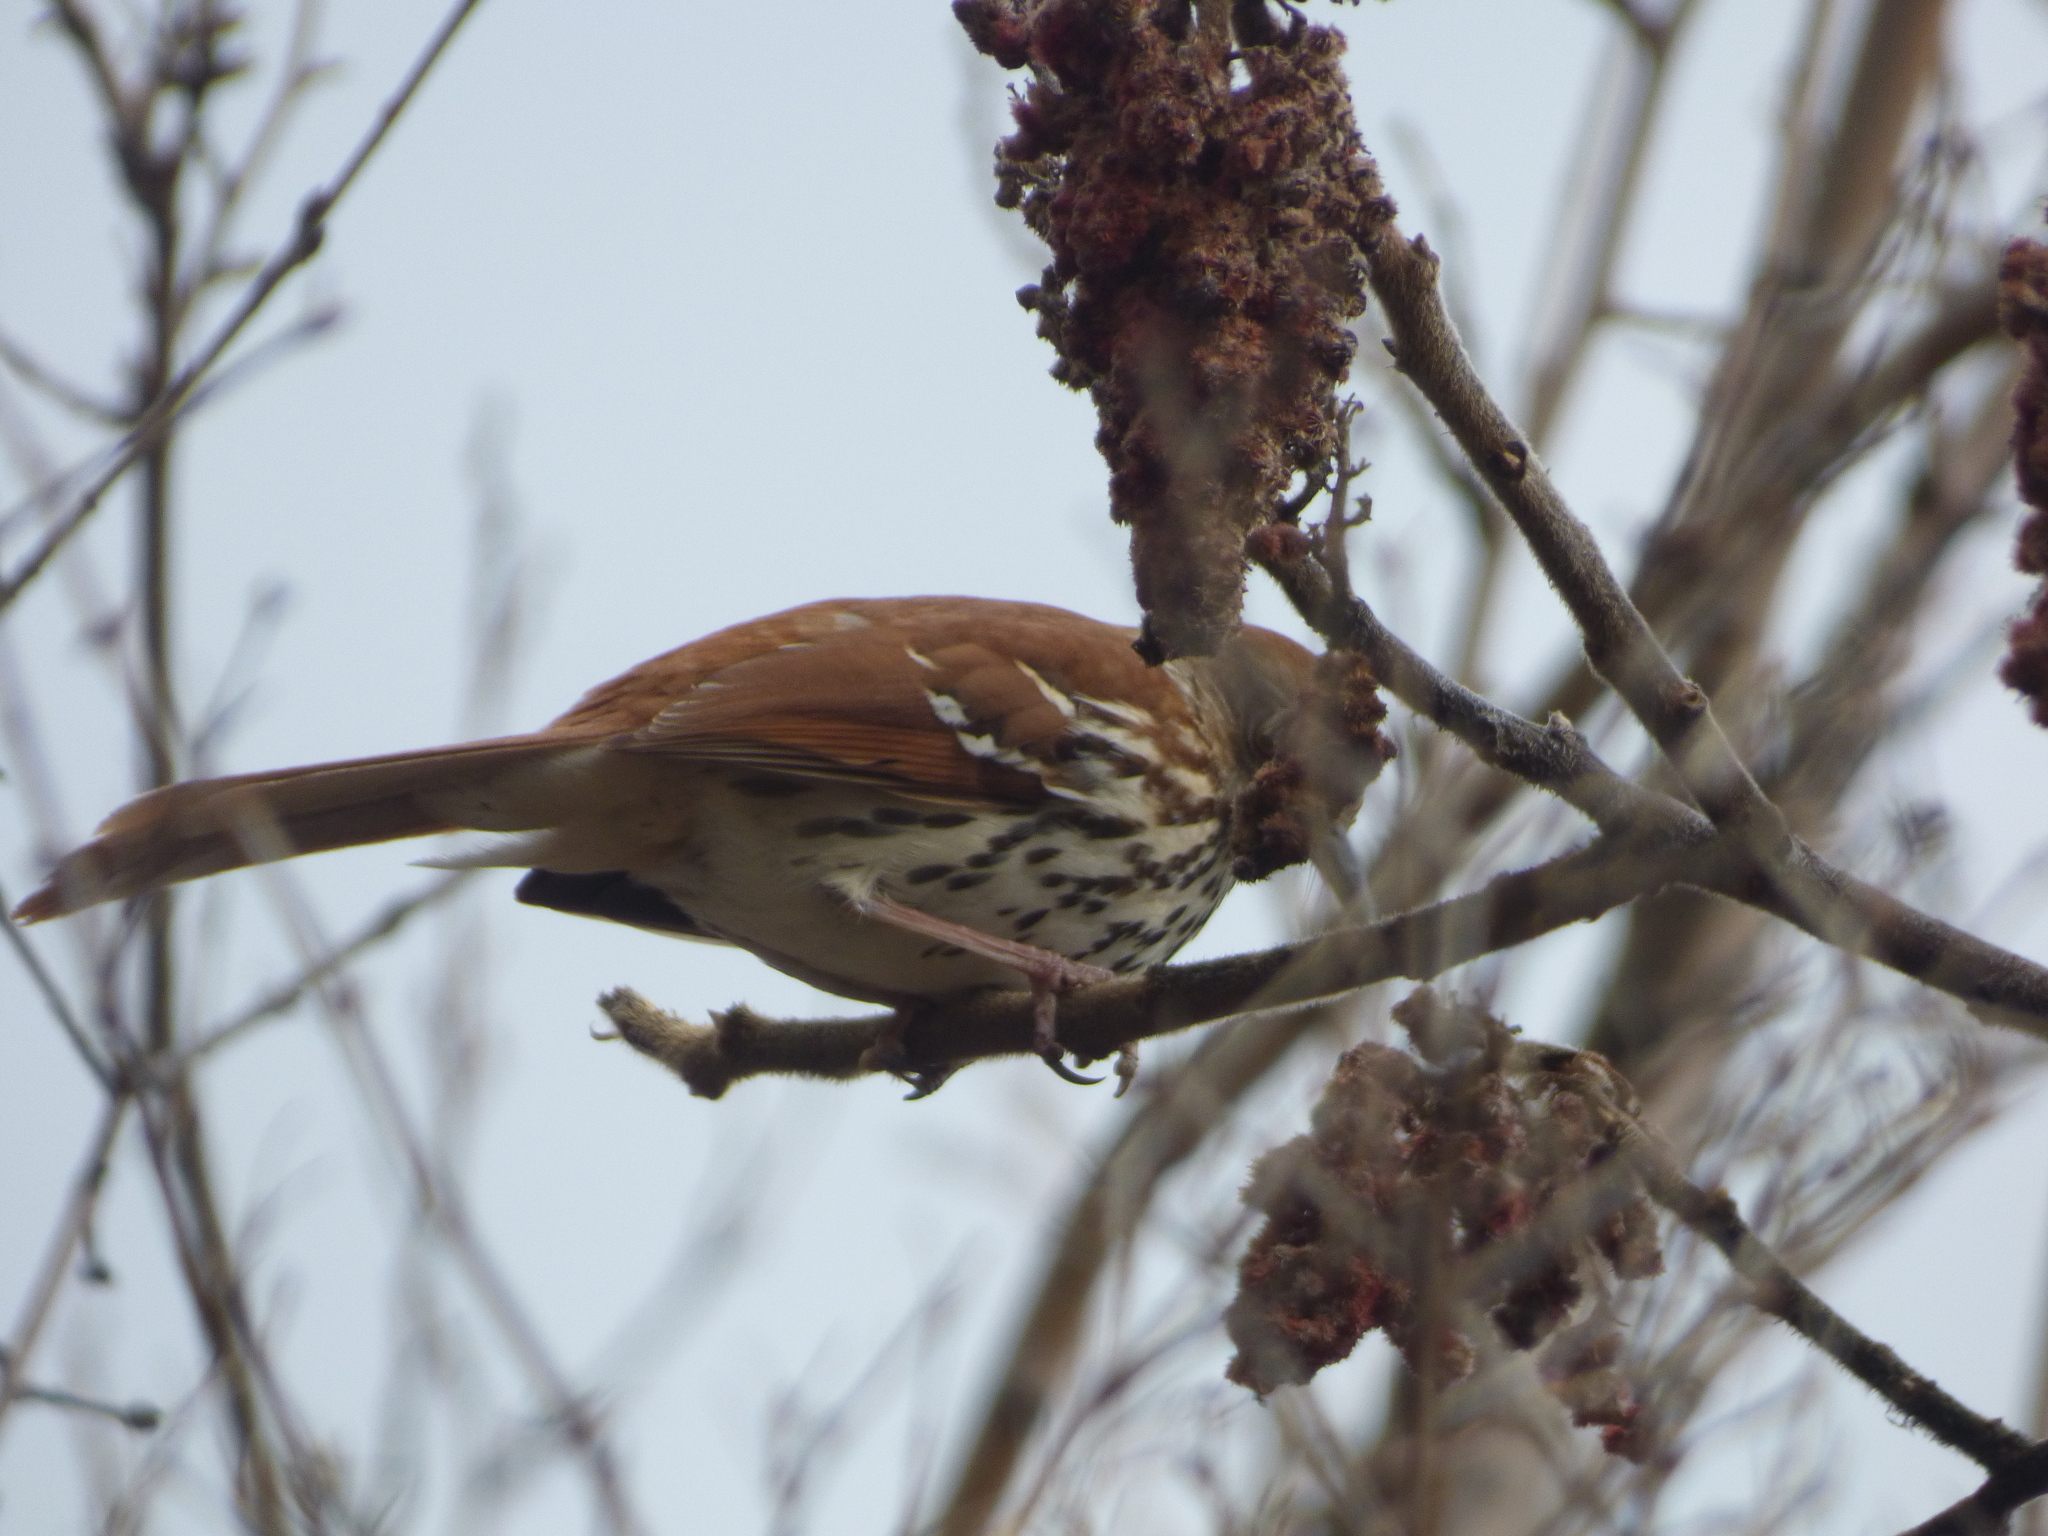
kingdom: Animalia
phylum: Chordata
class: Aves
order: Passeriformes
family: Mimidae
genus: Toxostoma
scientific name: Toxostoma rufum
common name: Brown thrasher
